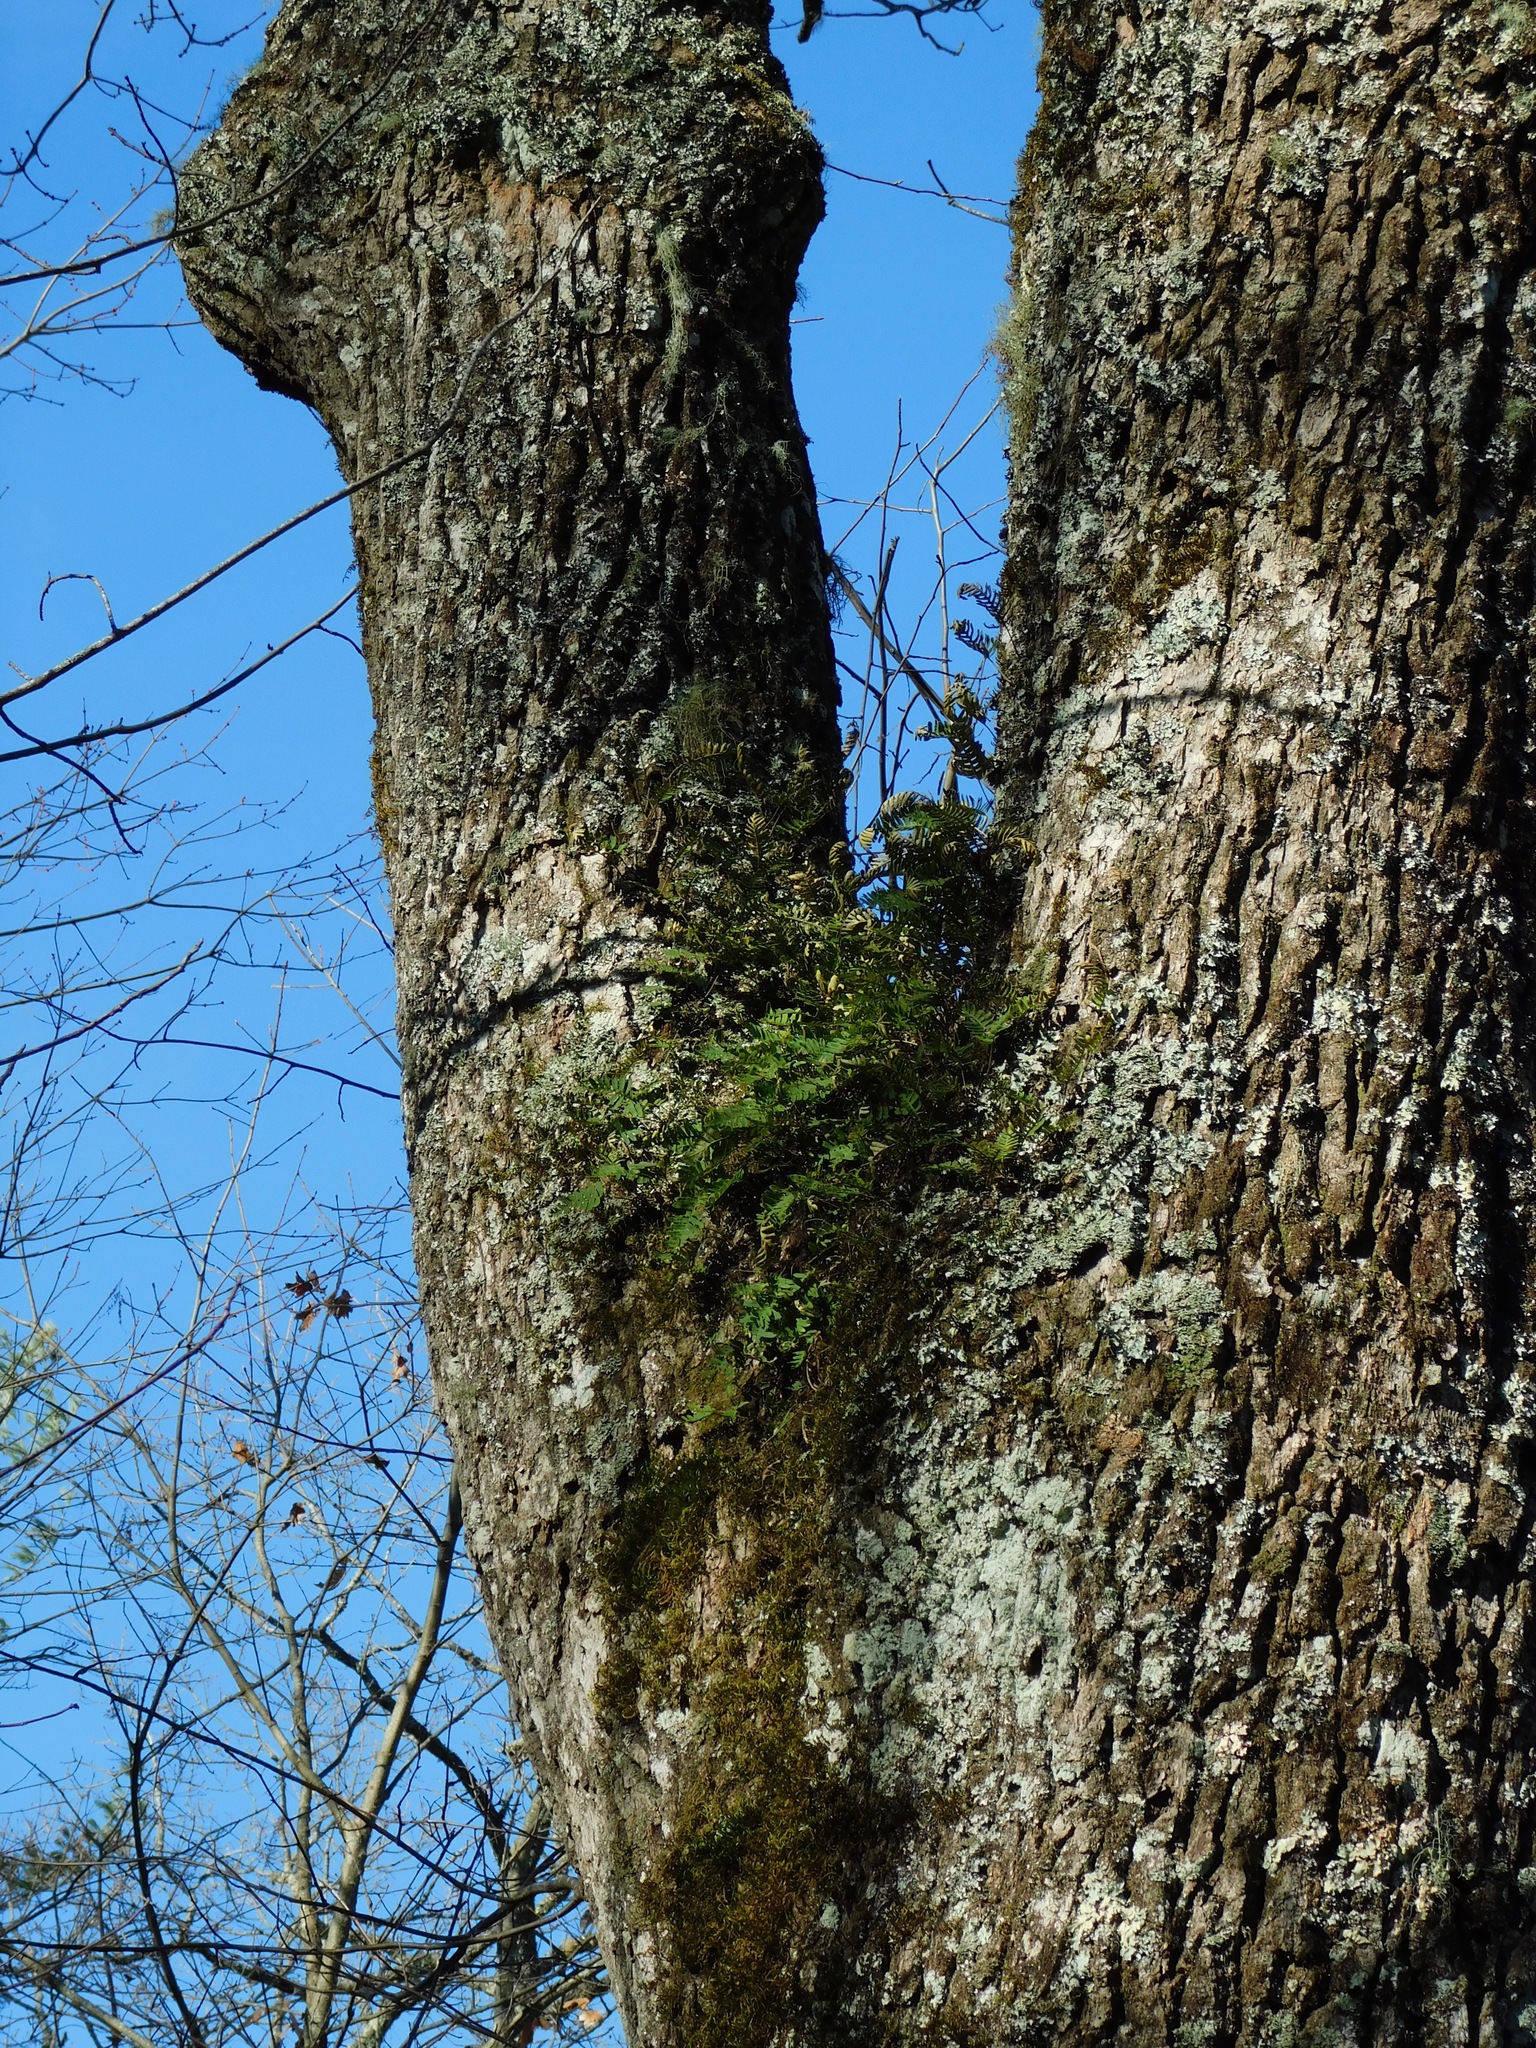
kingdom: Plantae
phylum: Tracheophyta
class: Polypodiopsida
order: Polypodiales
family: Polypodiaceae
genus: Pleopeltis
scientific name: Pleopeltis michauxiana
